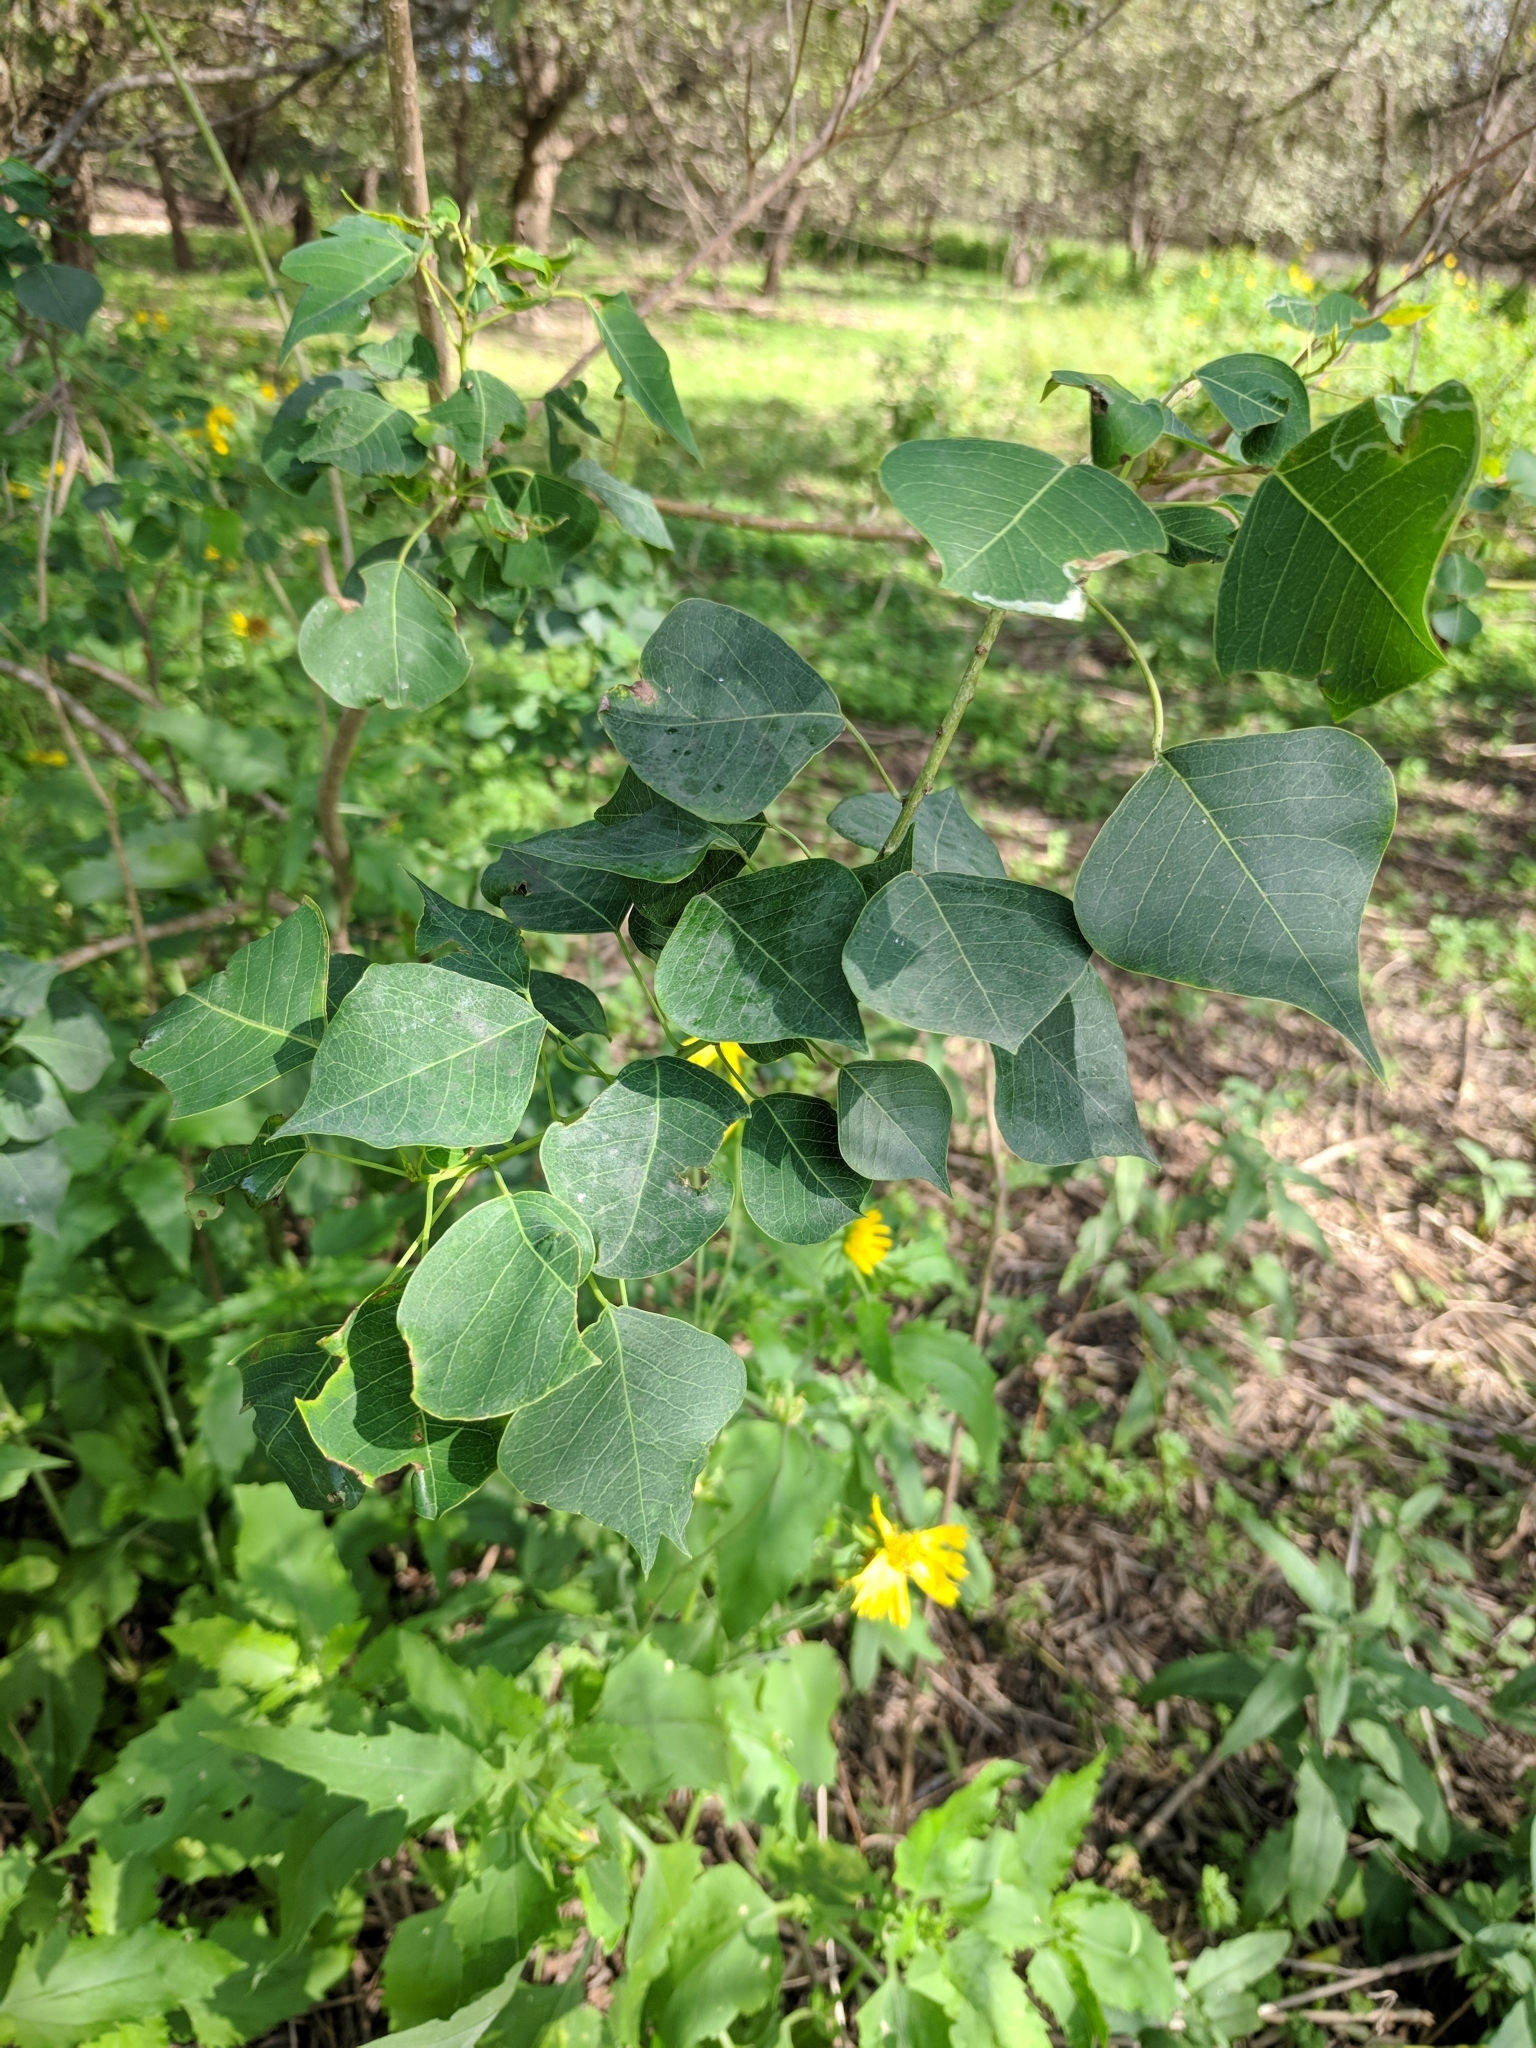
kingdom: Plantae
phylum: Tracheophyta
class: Magnoliopsida
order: Malpighiales
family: Euphorbiaceae
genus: Triadica
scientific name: Triadica sebifera
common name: Chinese tallow
